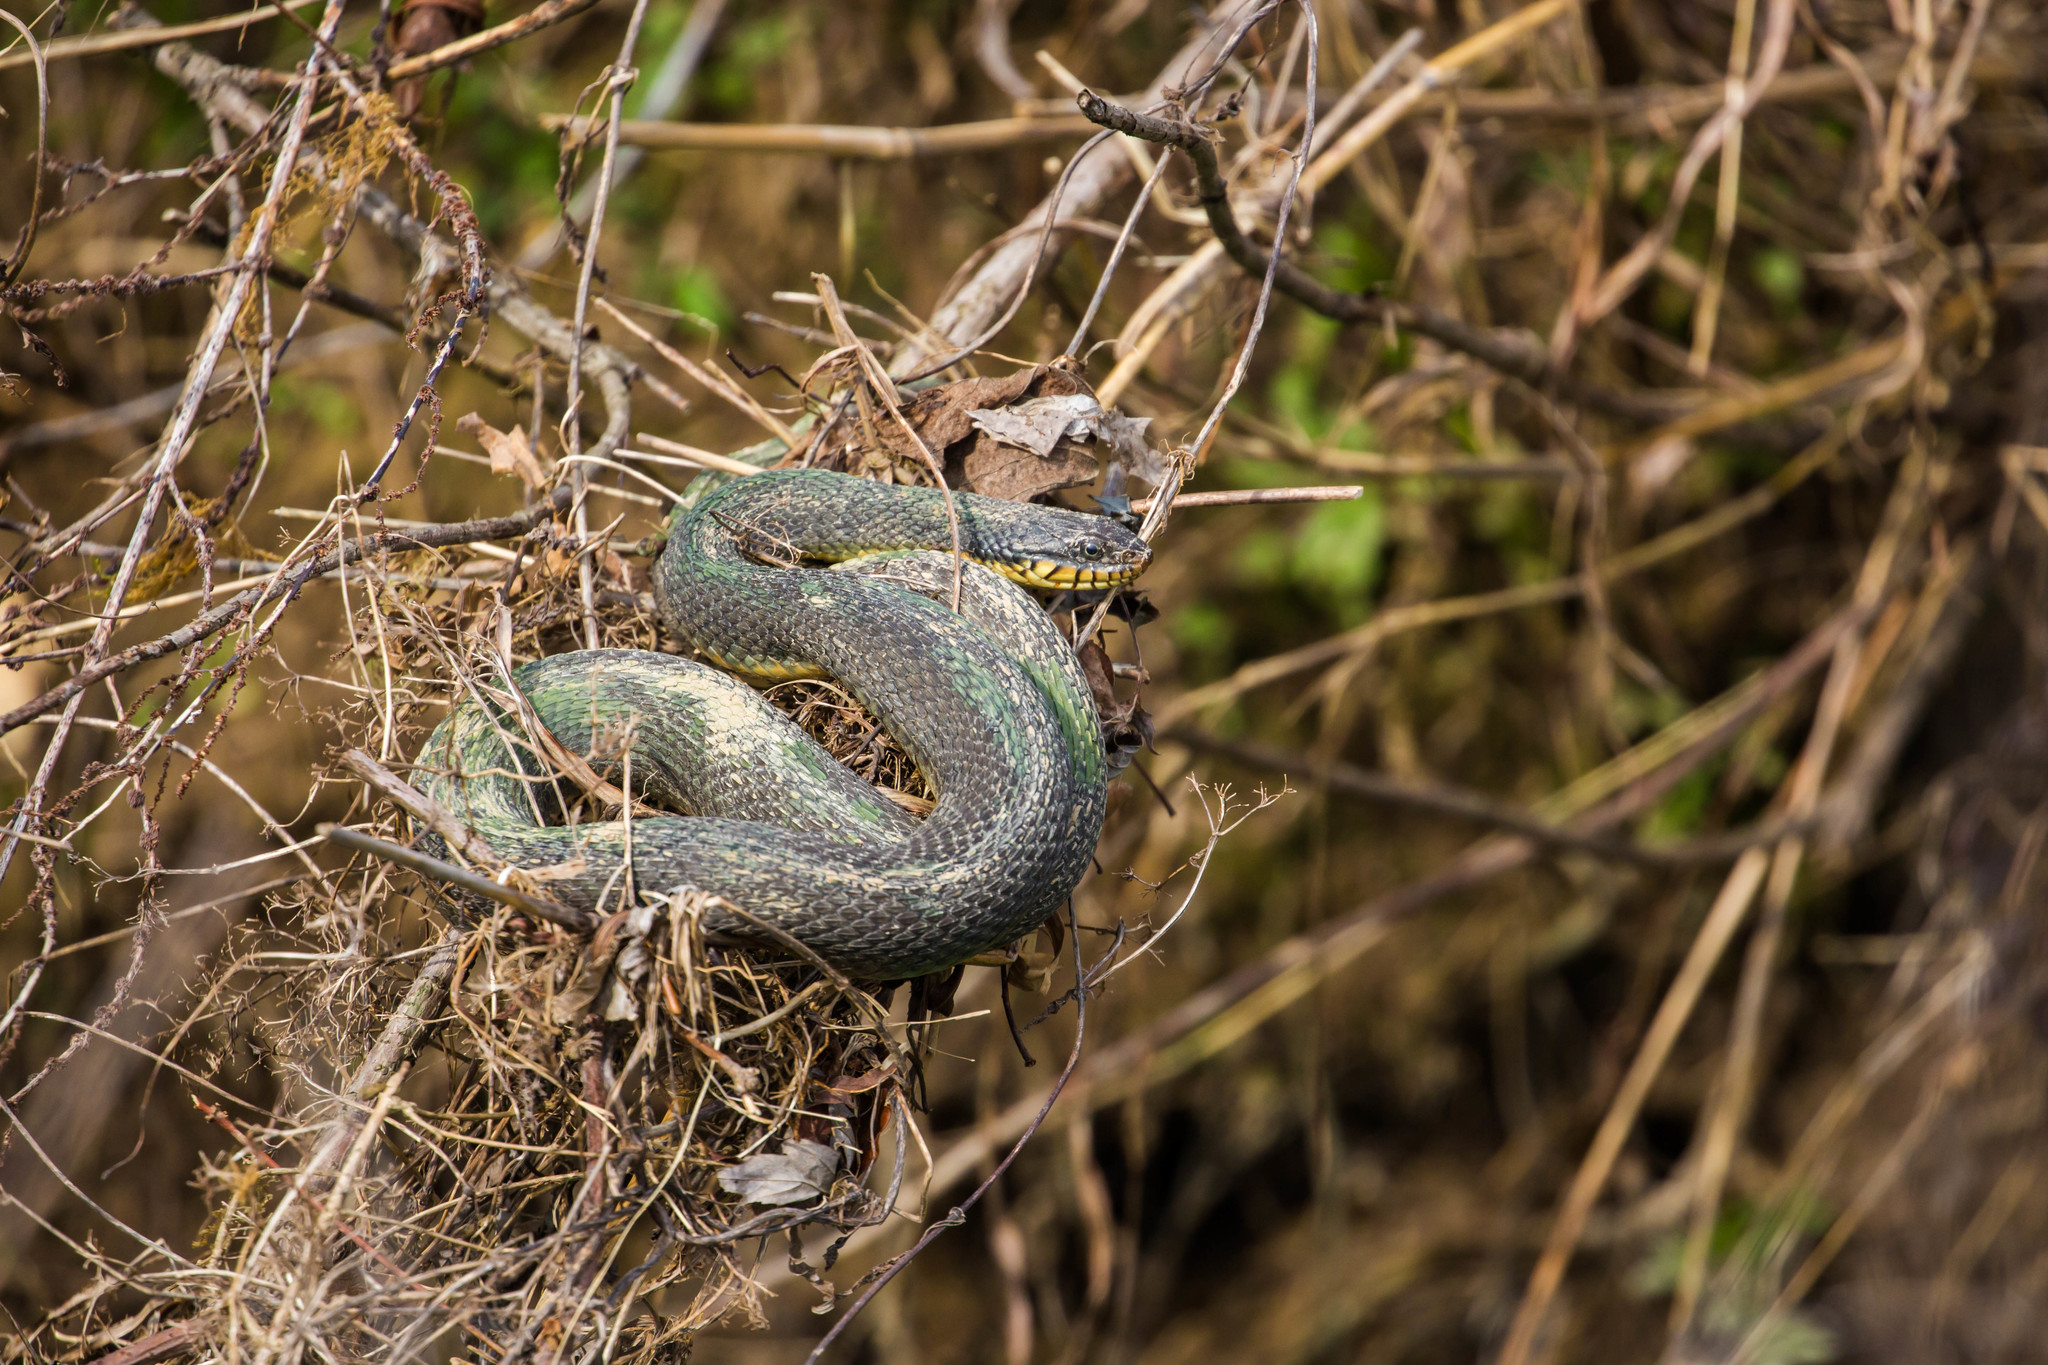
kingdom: Animalia
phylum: Chordata
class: Squamata
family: Colubridae
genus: Nerodia
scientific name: Nerodia erythrogaster
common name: Plainbelly water snake
